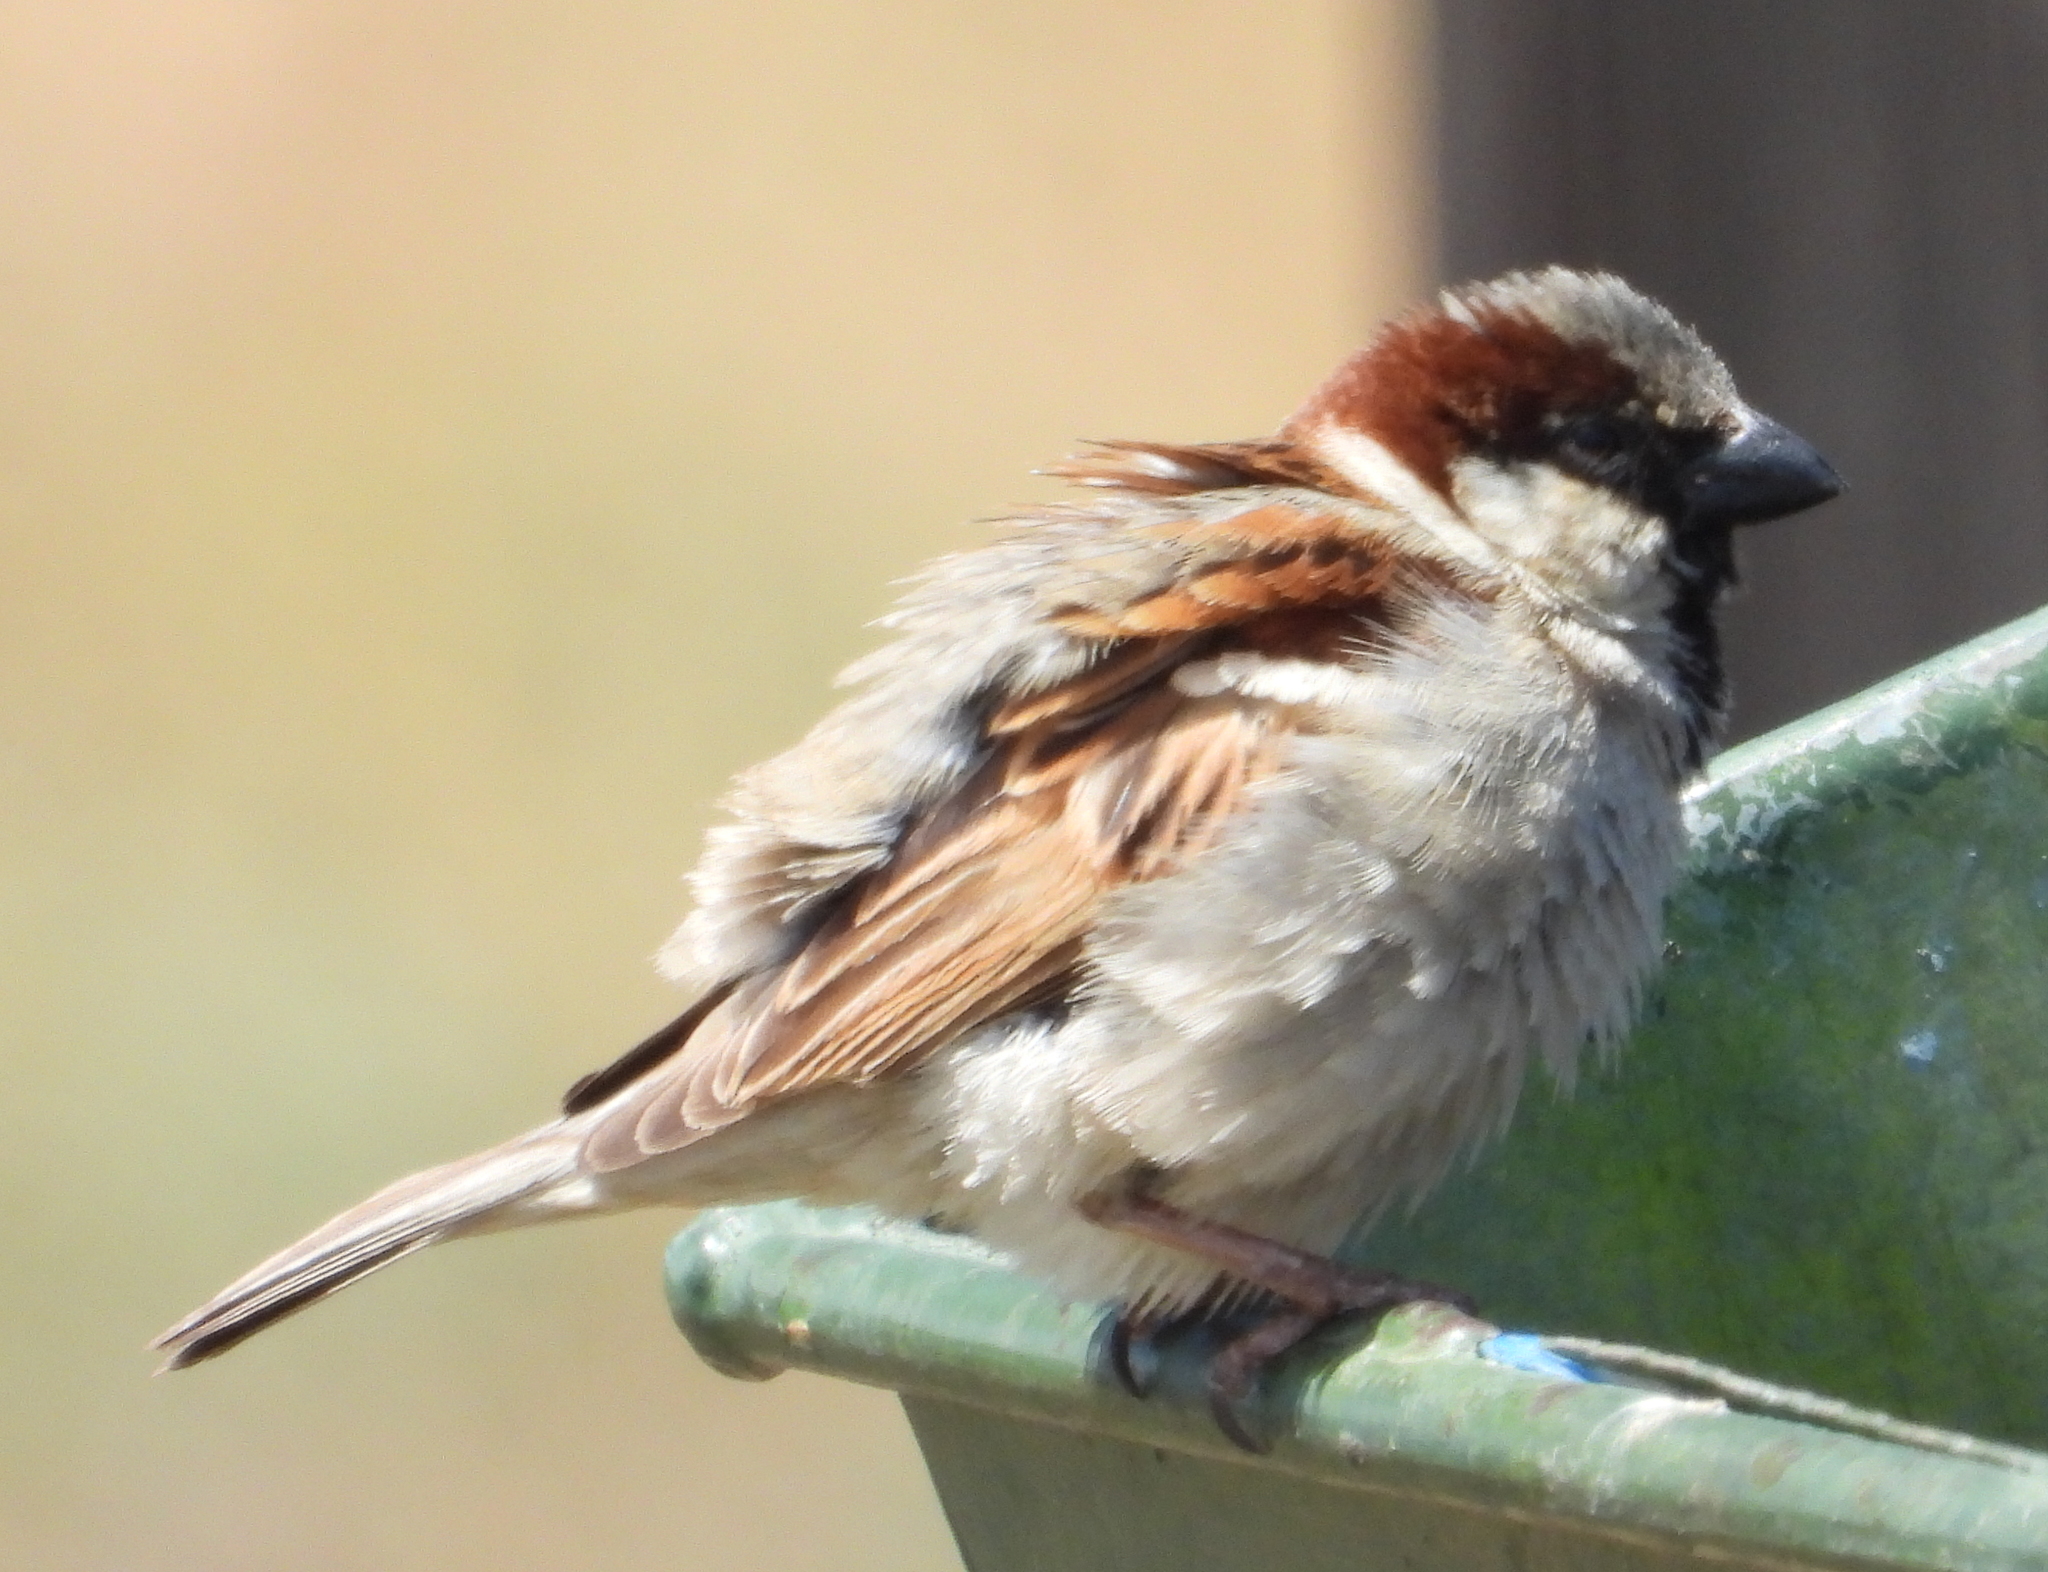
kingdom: Animalia
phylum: Chordata
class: Aves
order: Passeriformes
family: Passeridae
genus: Passer
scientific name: Passer domesticus
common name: House sparrow
